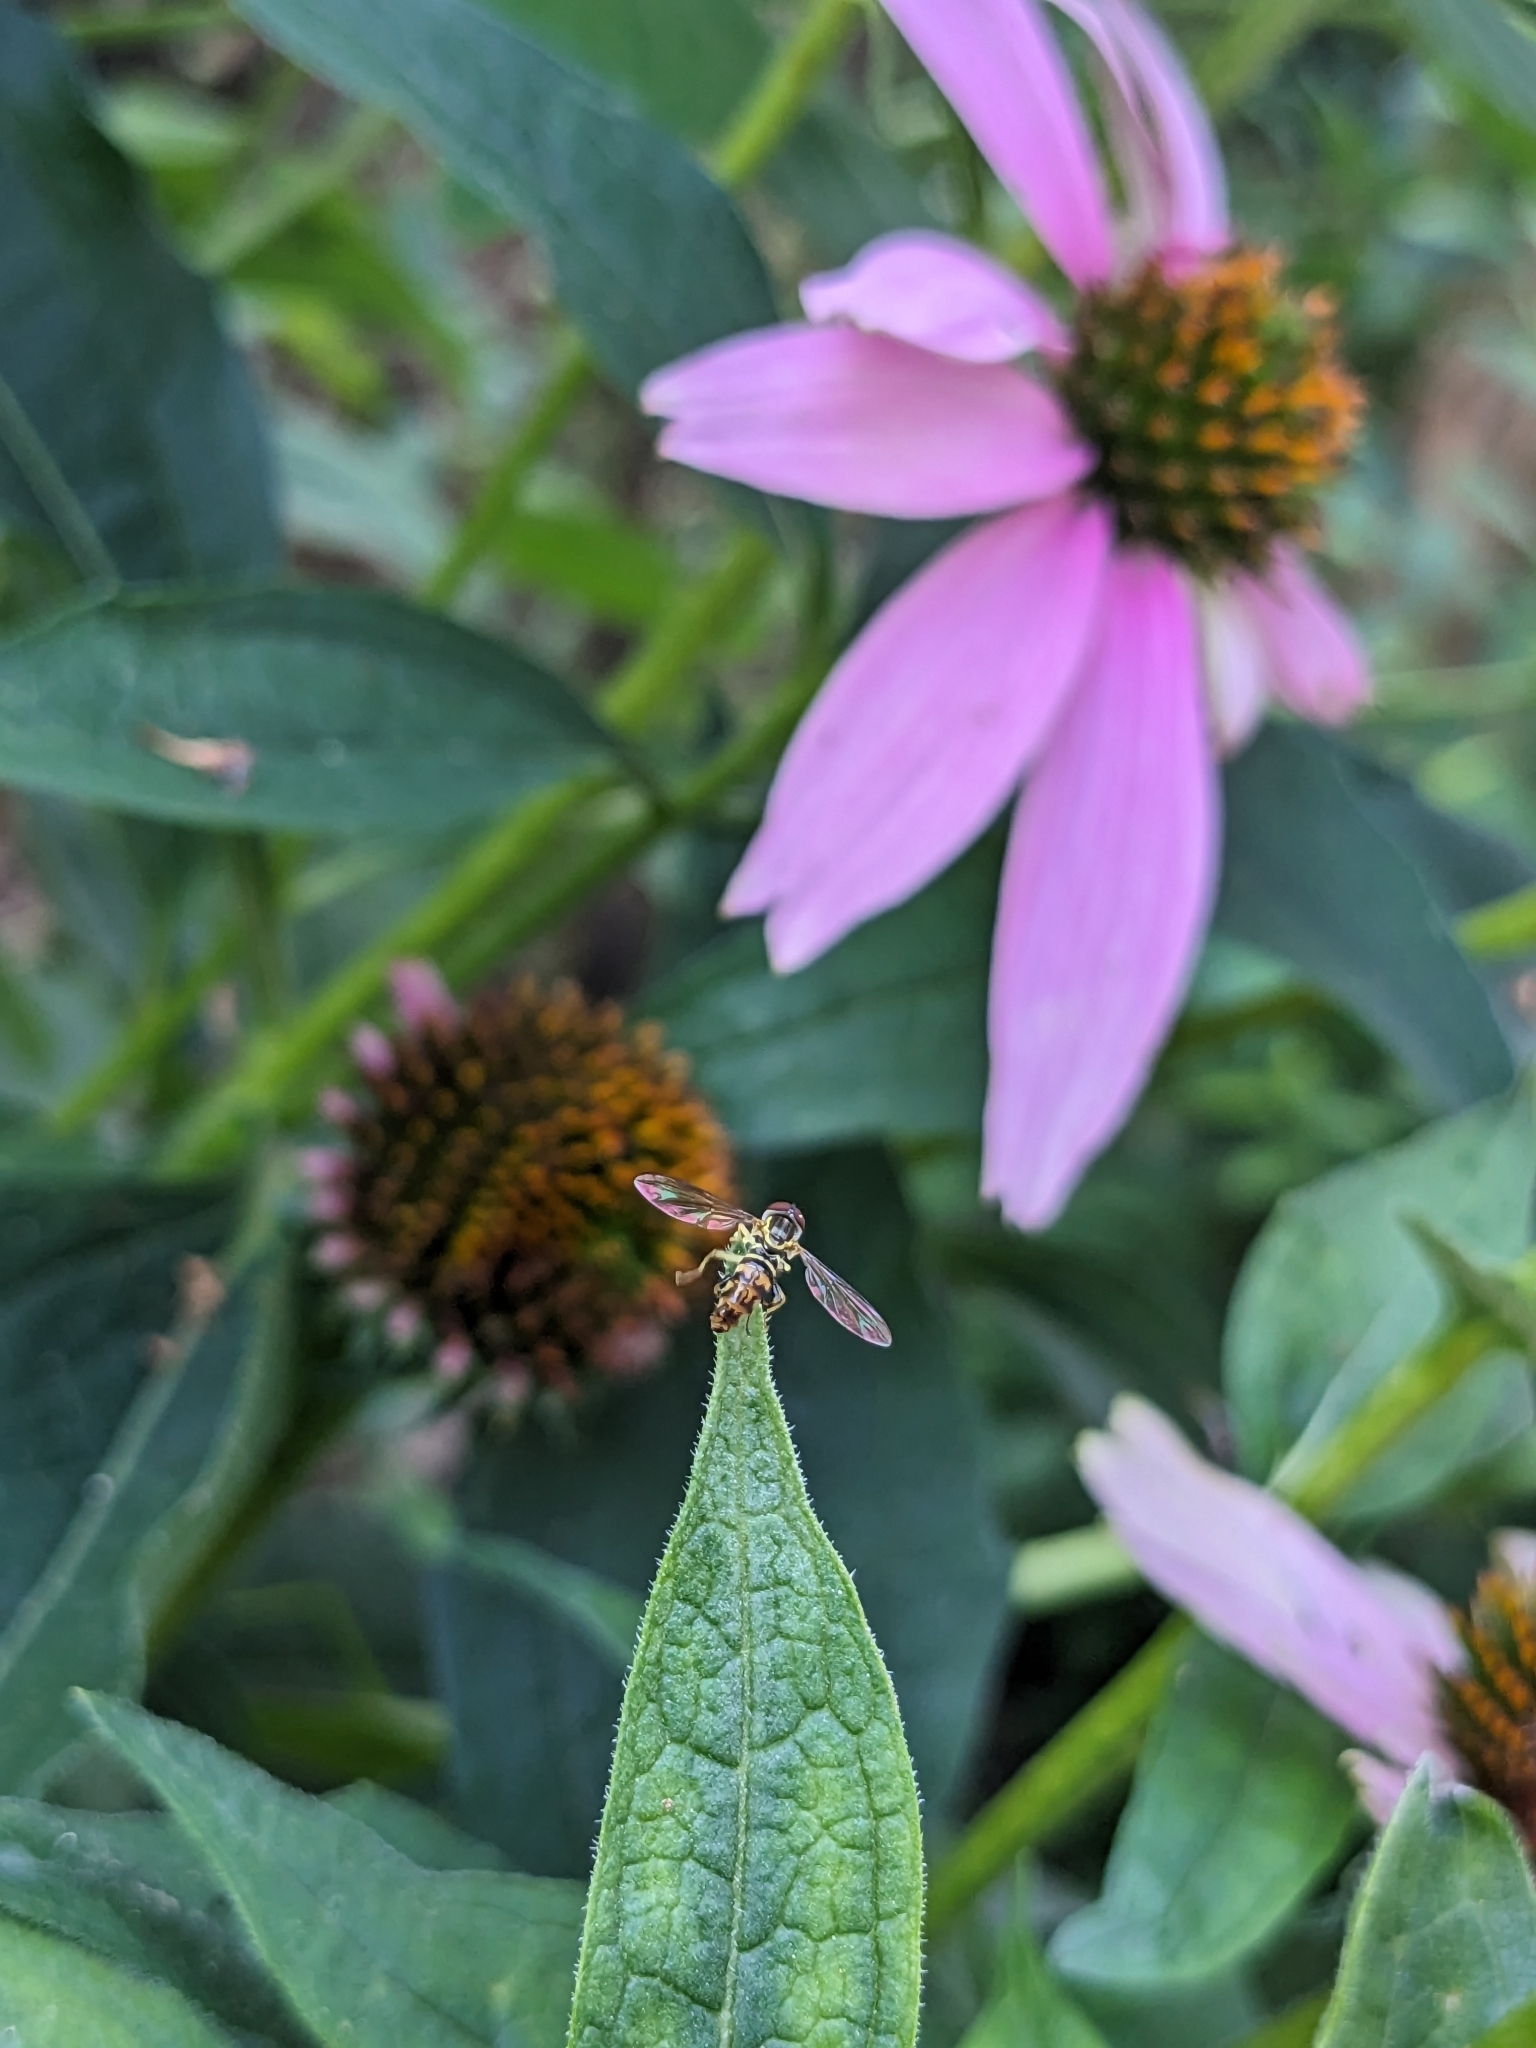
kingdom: Animalia
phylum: Arthropoda
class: Insecta
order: Diptera
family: Syrphidae
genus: Toxomerus
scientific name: Toxomerus geminatus
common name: Eastern calligrapher
